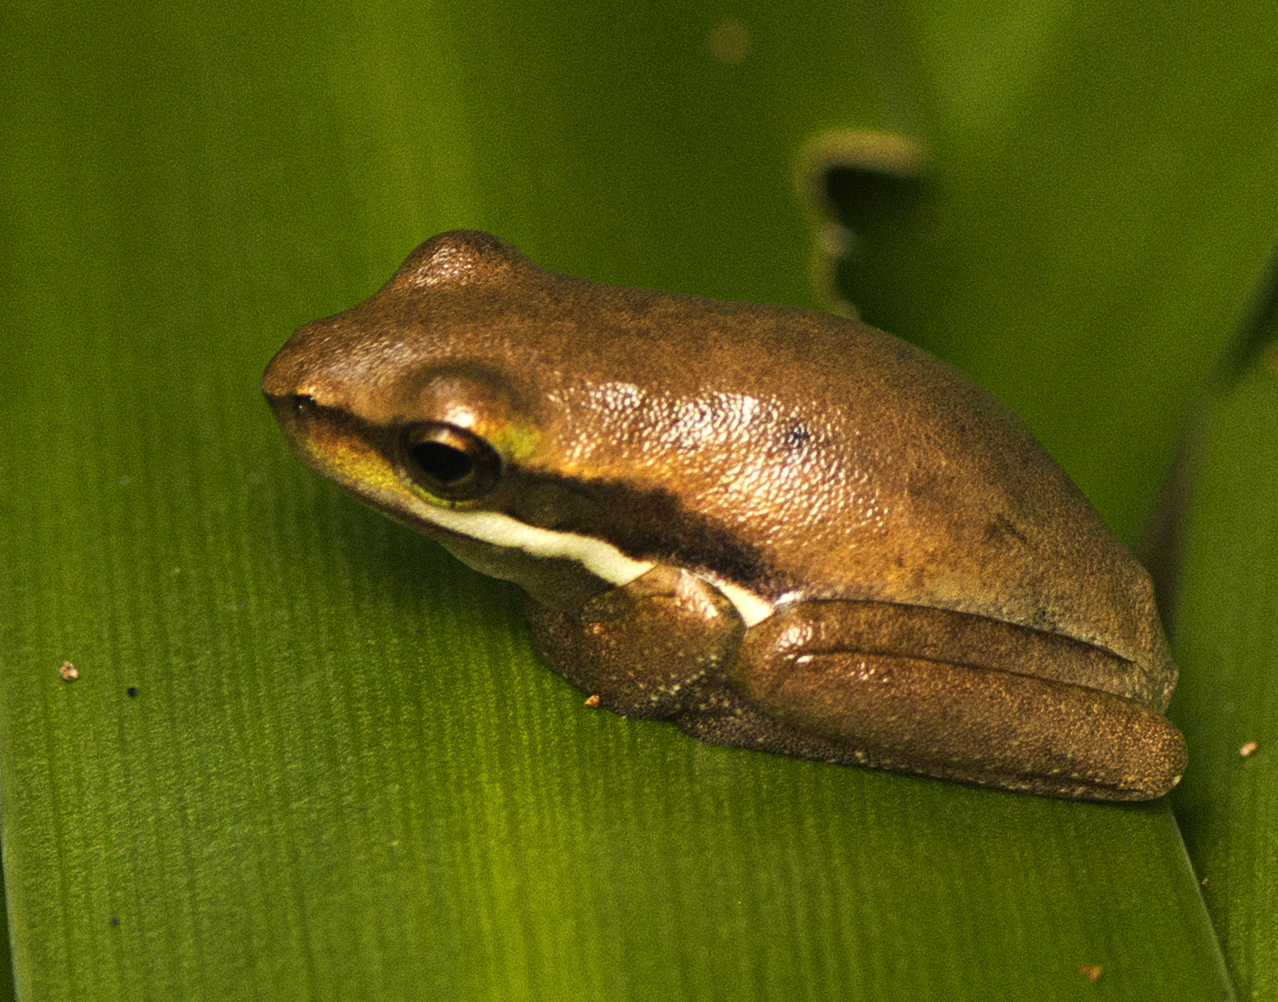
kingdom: Animalia
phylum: Chordata
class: Amphibia
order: Anura
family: Pelodryadidae
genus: Litoria
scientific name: Litoria fallax
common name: Eastern dwarf treefrog
